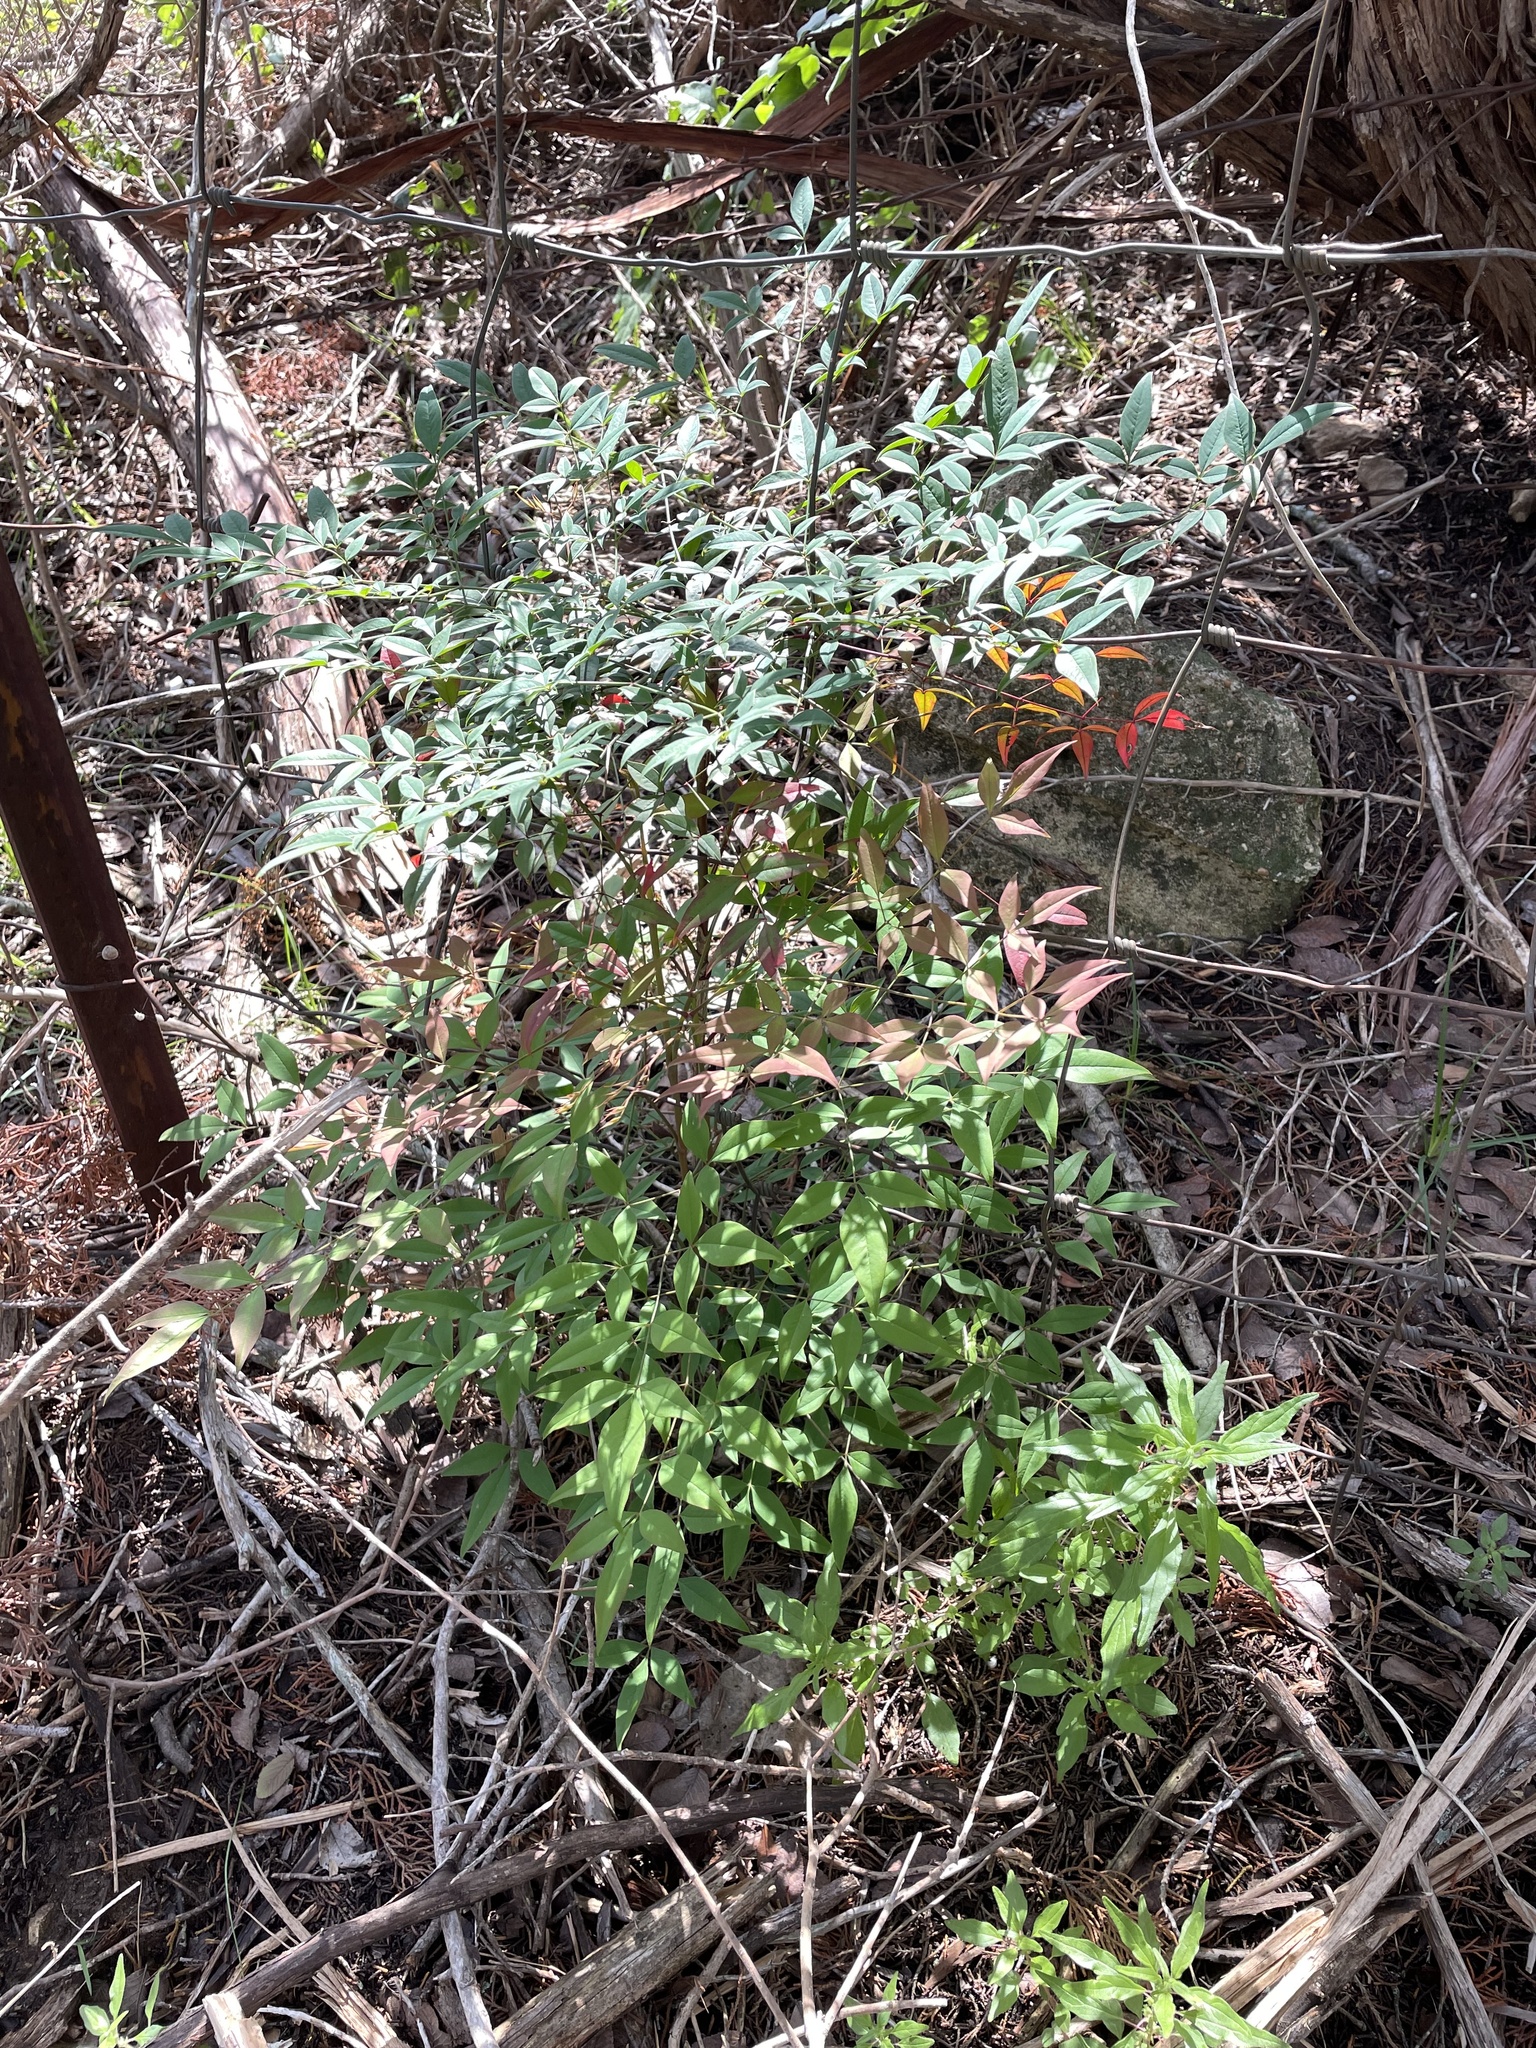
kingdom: Plantae
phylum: Tracheophyta
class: Magnoliopsida
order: Ranunculales
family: Berberidaceae
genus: Nandina
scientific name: Nandina domestica
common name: Sacred bamboo
